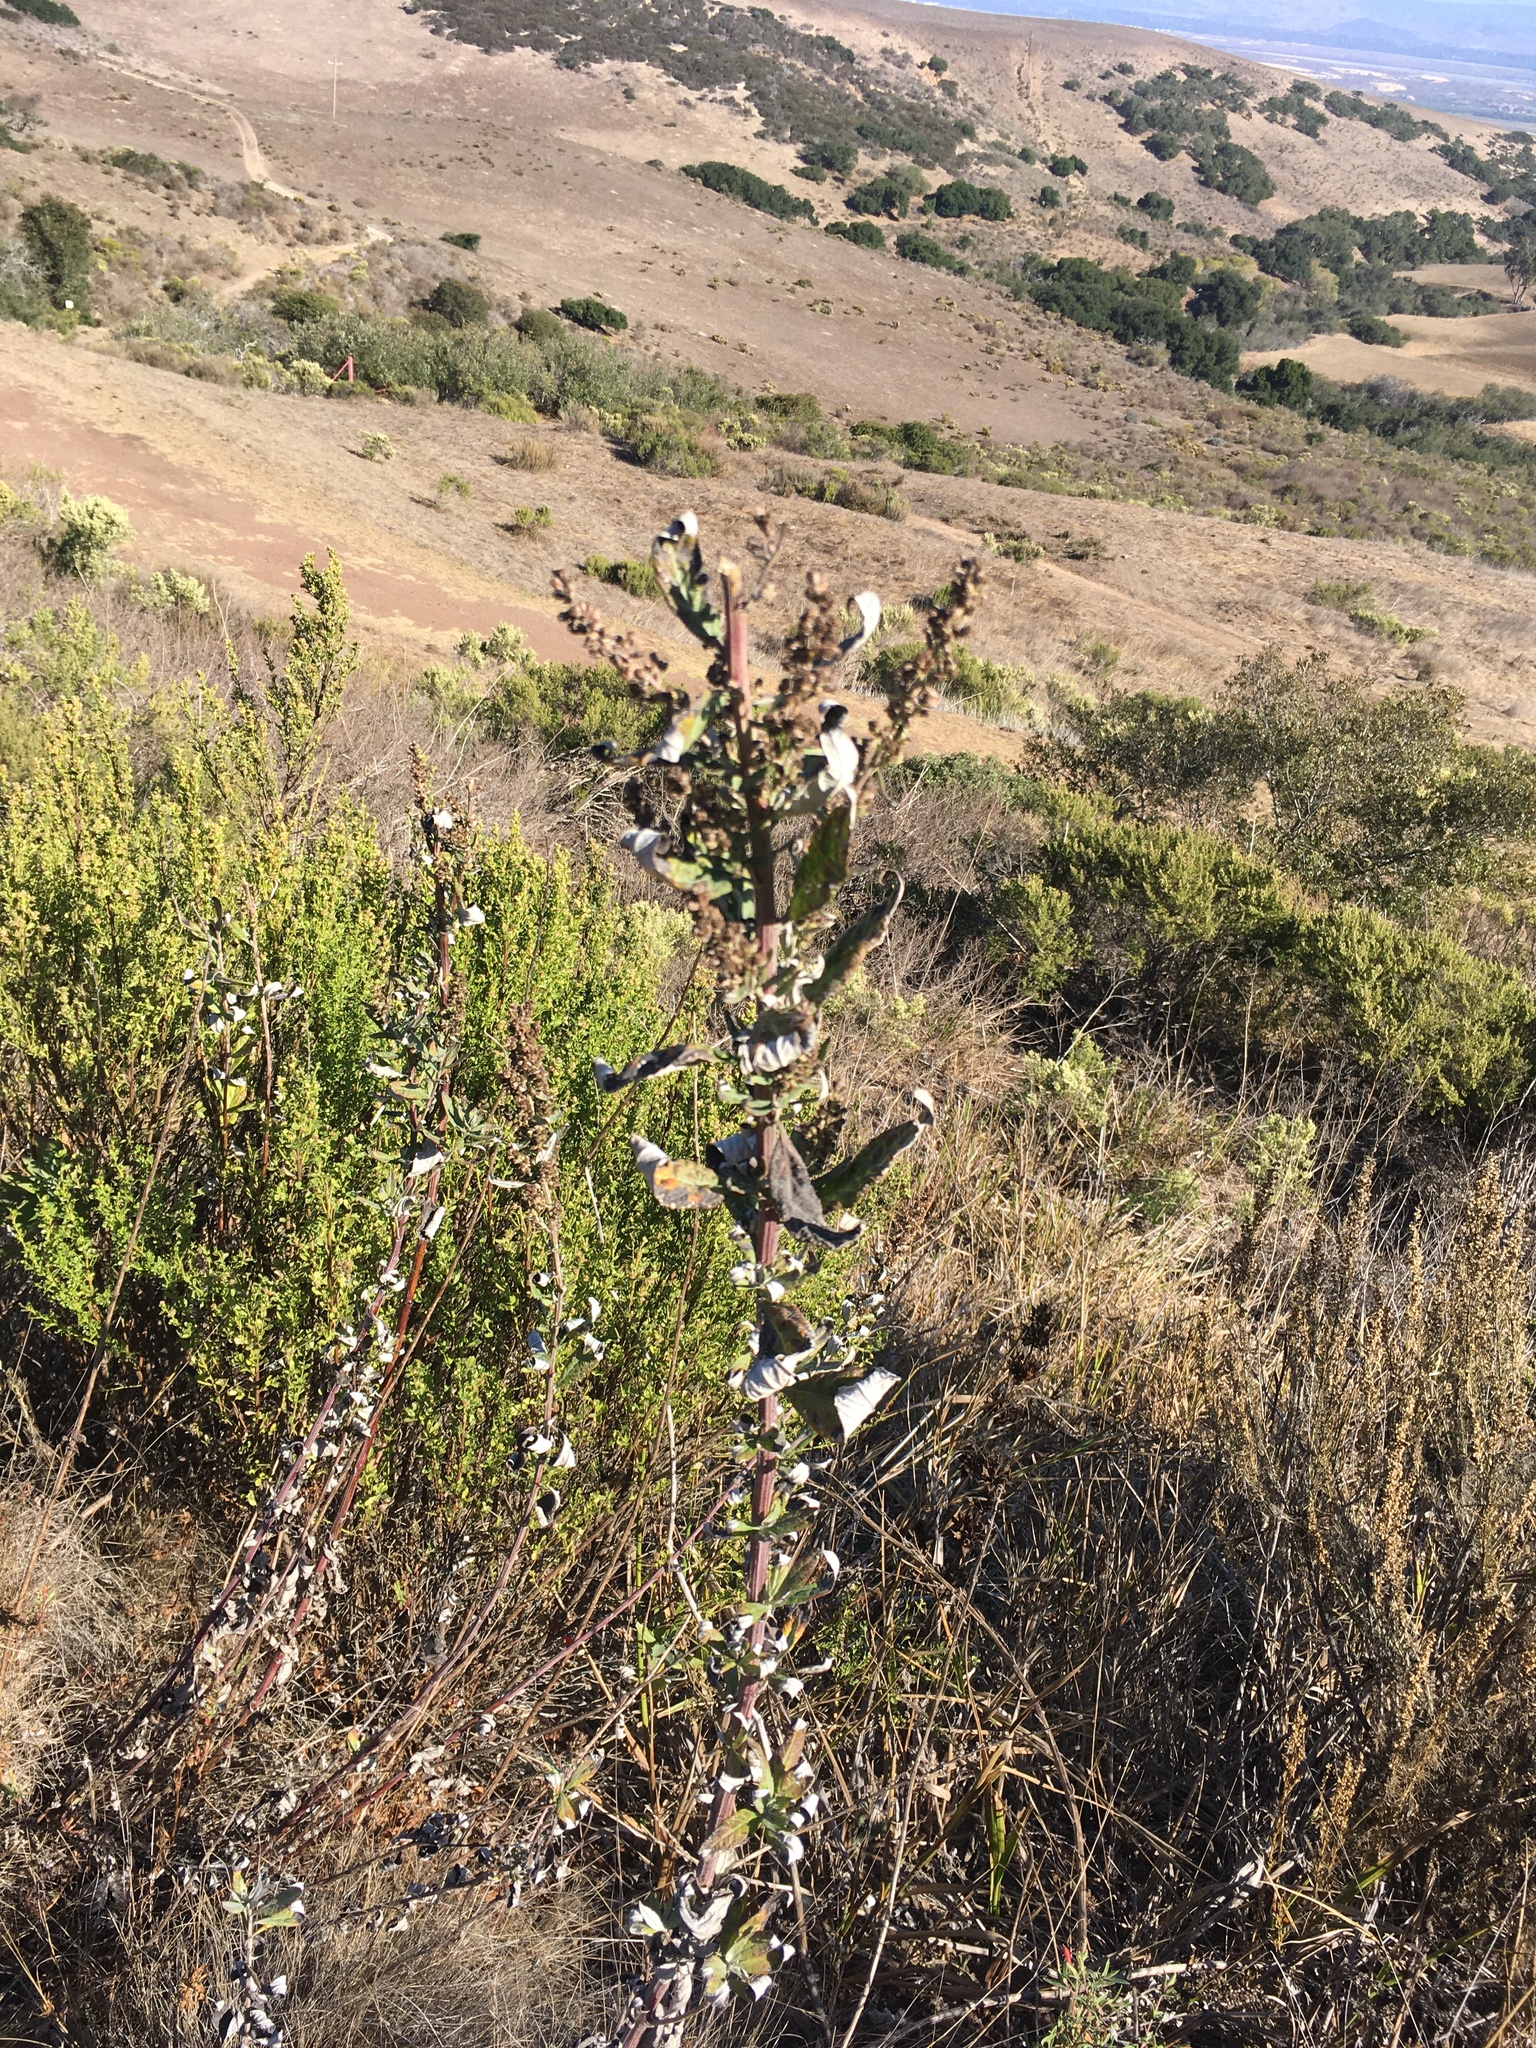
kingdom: Plantae
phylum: Tracheophyta
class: Magnoliopsida
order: Asterales
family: Asteraceae
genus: Artemisia
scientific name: Artemisia douglasiana
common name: Northwest mugwort
